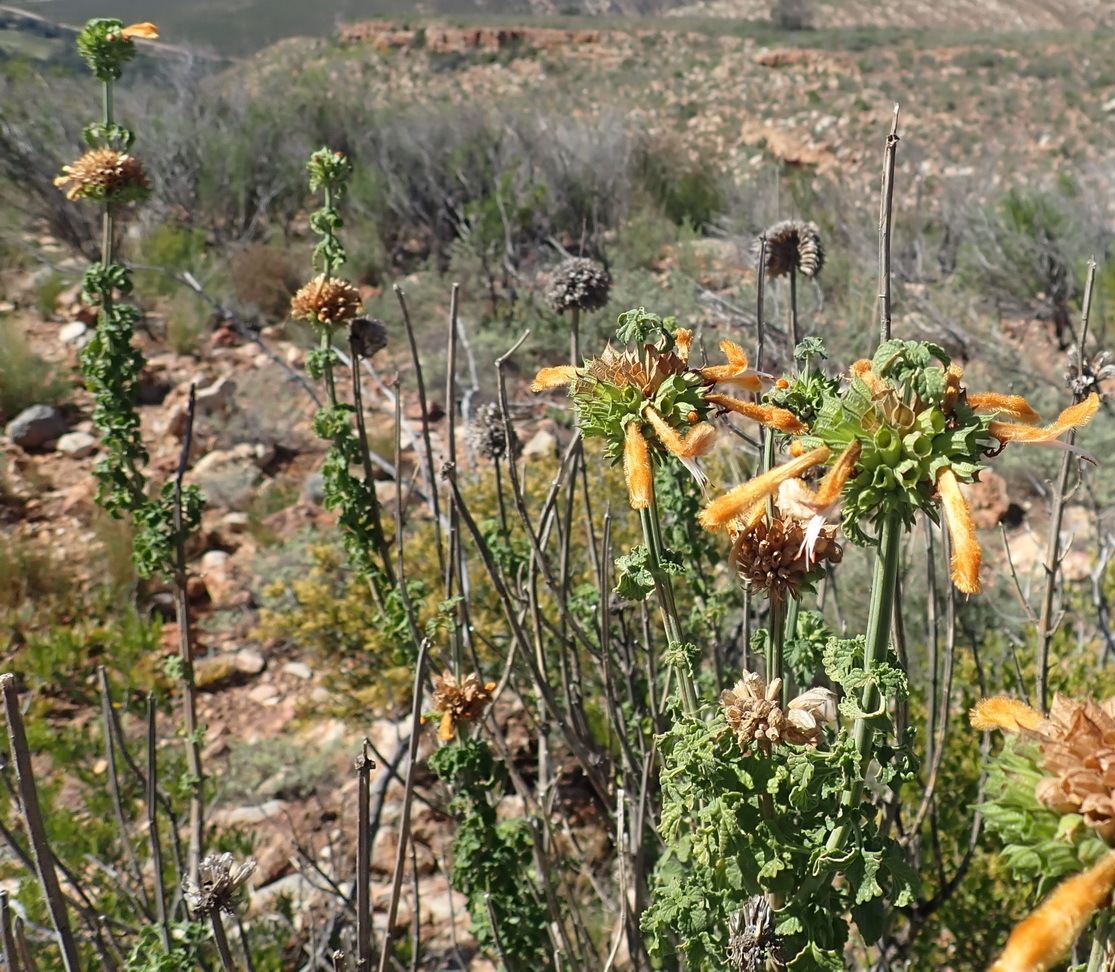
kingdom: Plantae
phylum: Tracheophyta
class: Magnoliopsida
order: Lamiales
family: Lamiaceae
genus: Leonotis
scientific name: Leonotis ocymifolia
